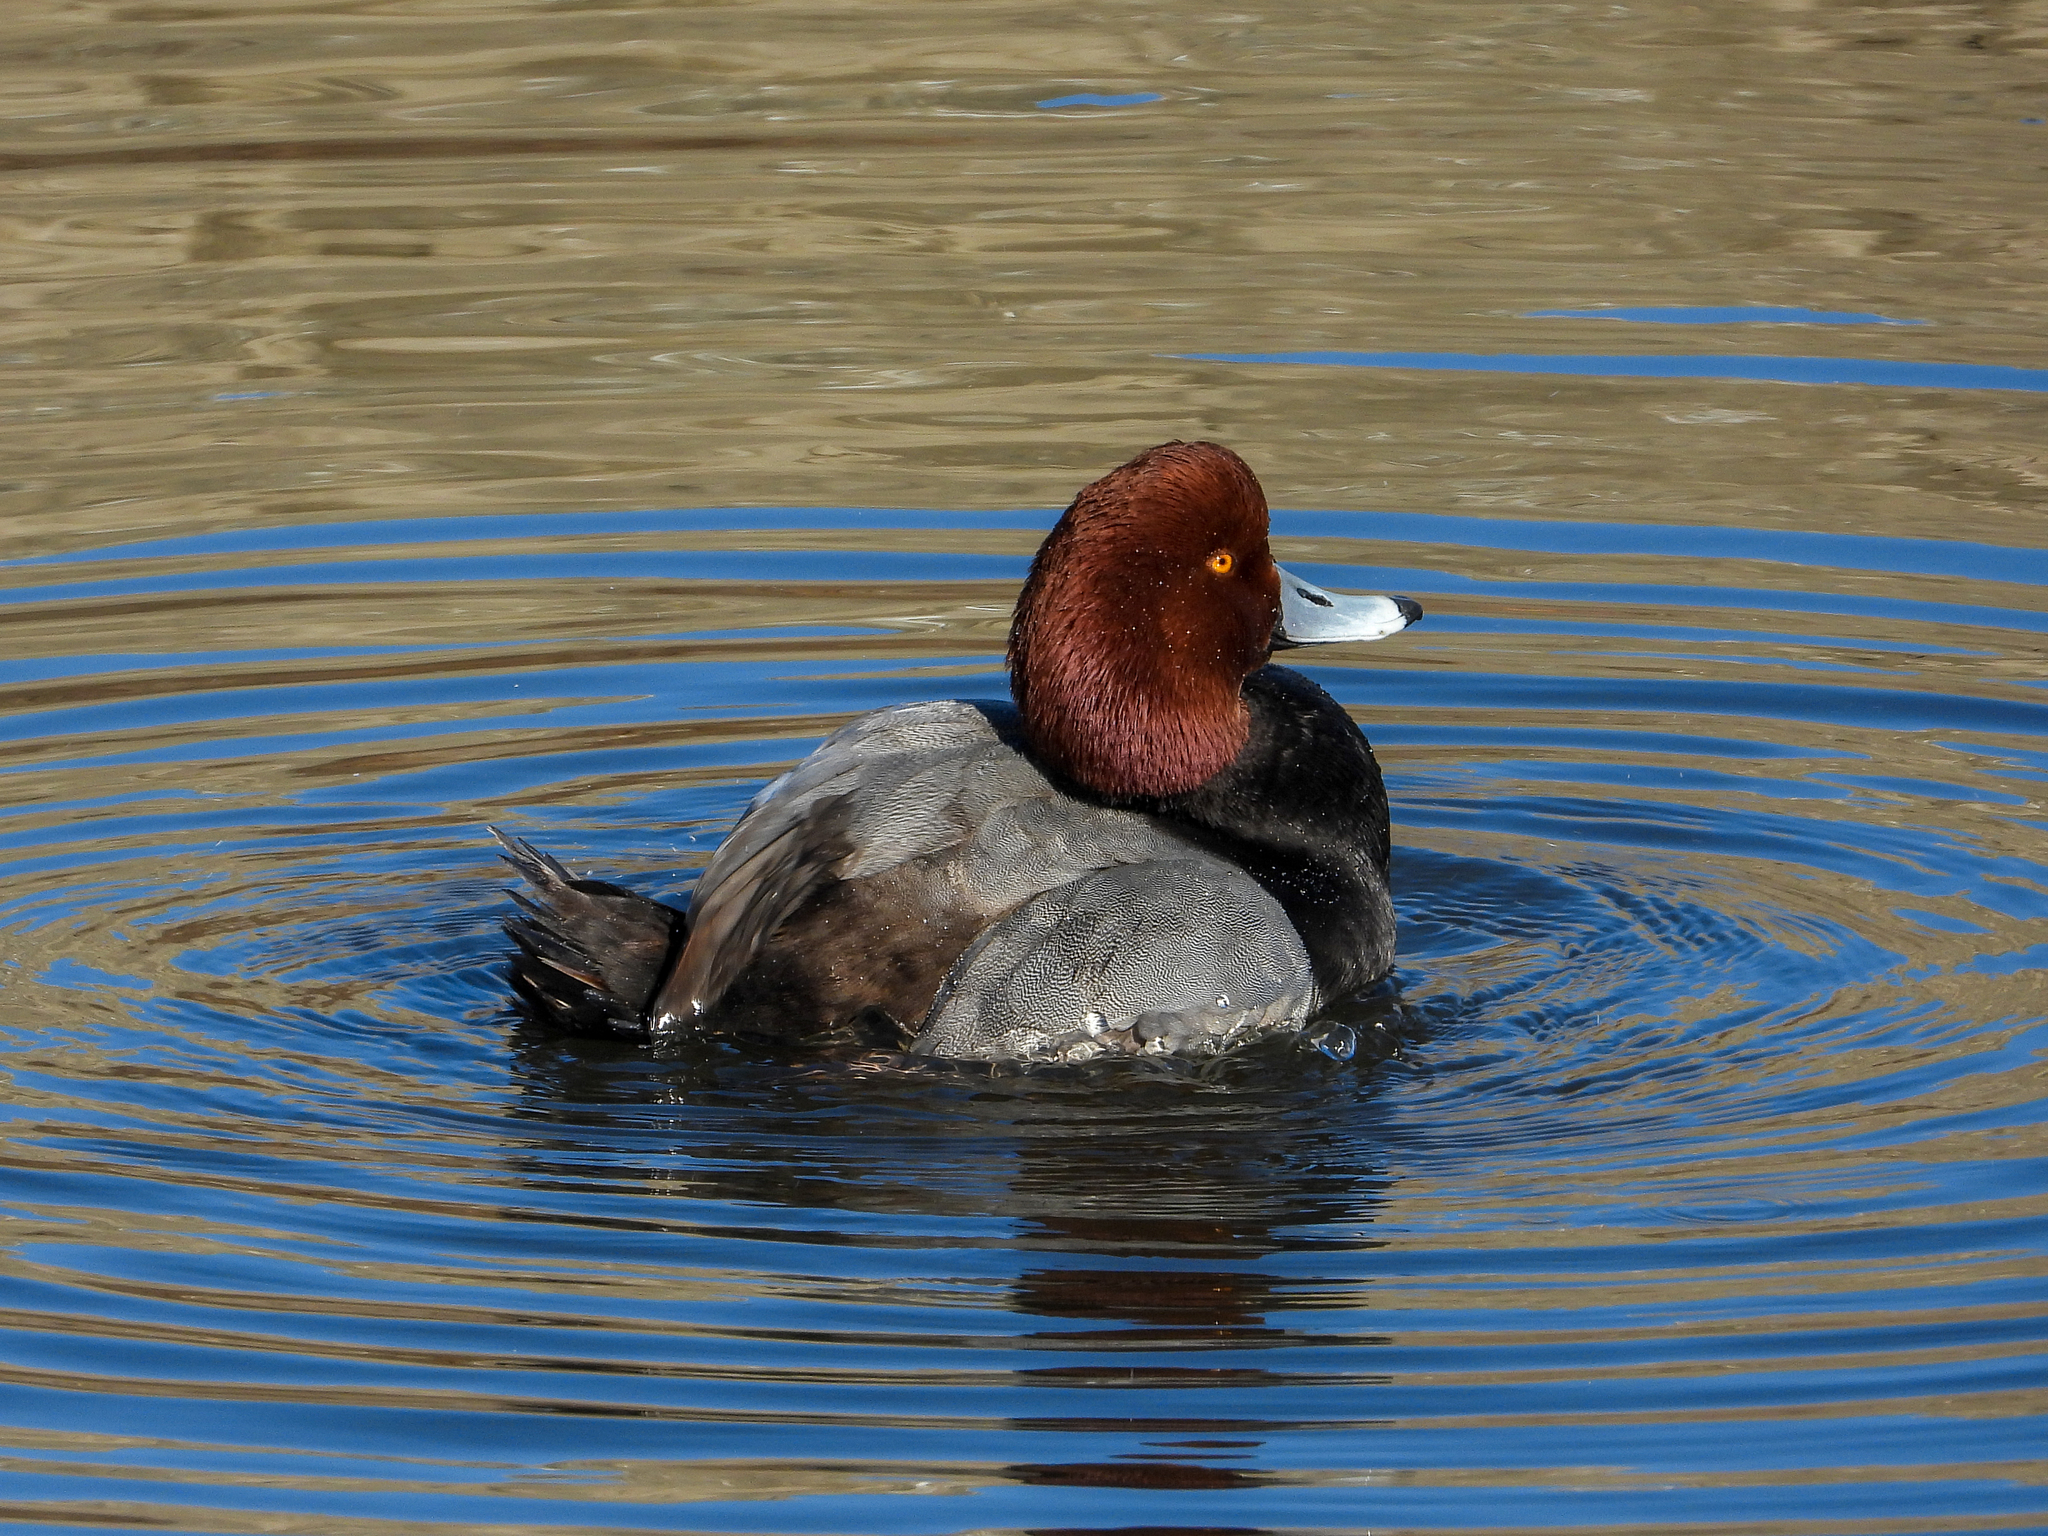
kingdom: Animalia
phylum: Chordata
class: Aves
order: Anseriformes
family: Anatidae
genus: Aythya
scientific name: Aythya americana
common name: Redhead
